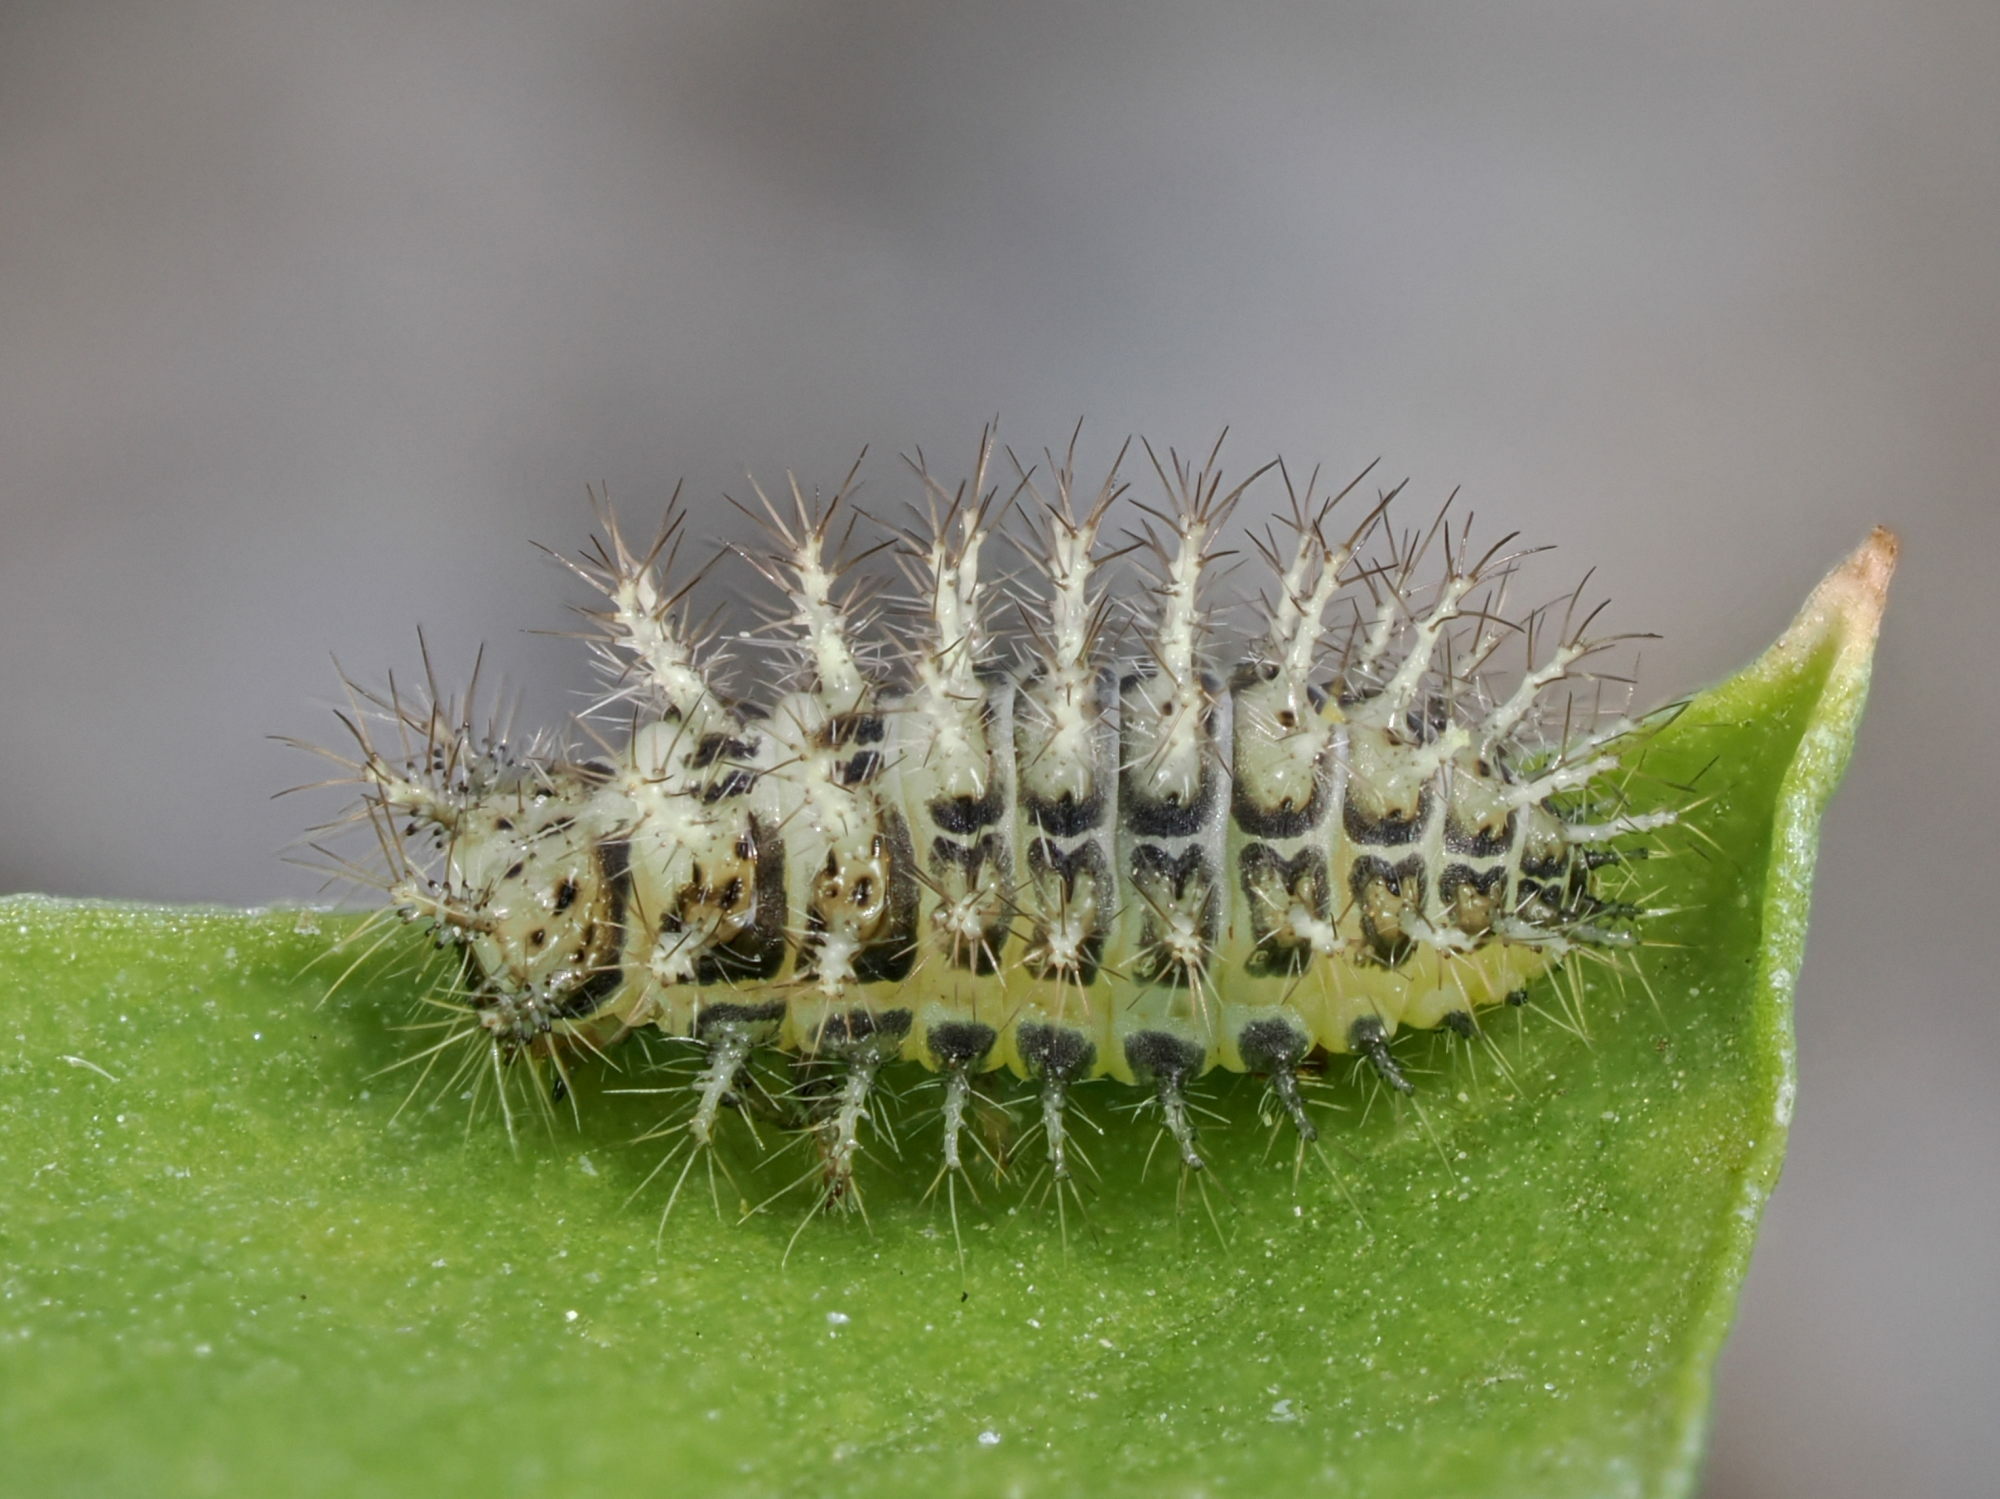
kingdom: Animalia
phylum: Arthropoda
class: Insecta
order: Coleoptera
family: Coccinellidae
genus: Subcoccinella
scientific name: Subcoccinella vigintiquatuorpunctata
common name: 24-spot ladybird
